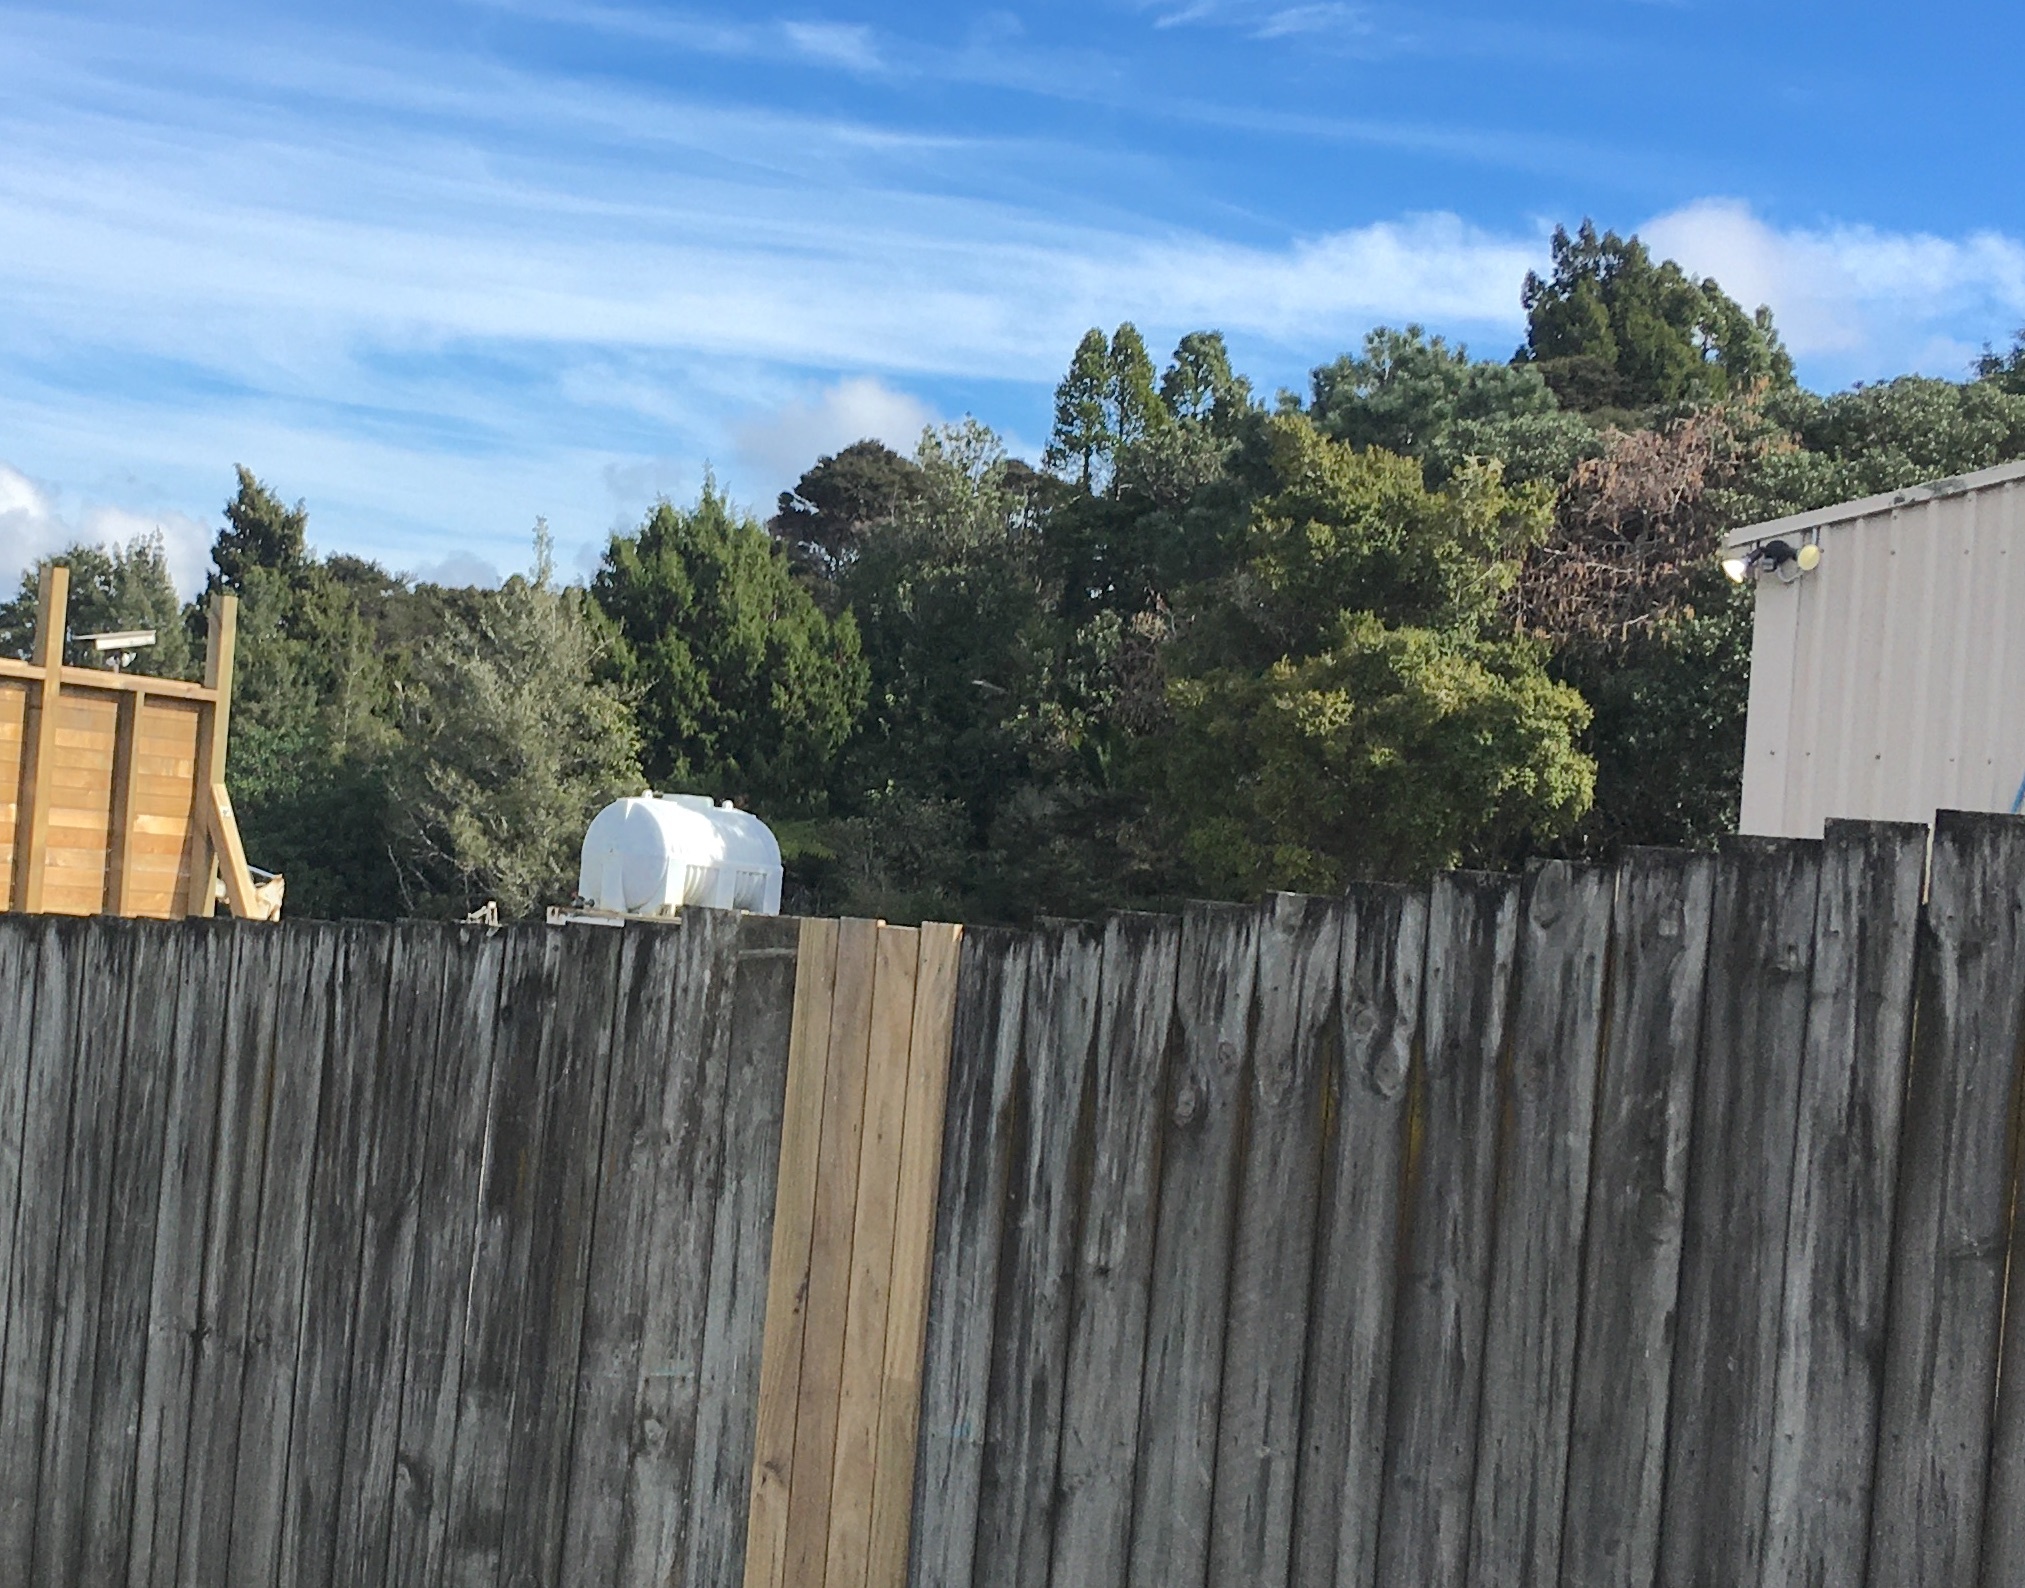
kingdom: Plantae
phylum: Tracheophyta
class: Pinopsida
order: Pinales
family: Araucariaceae
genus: Agathis
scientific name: Agathis australis
